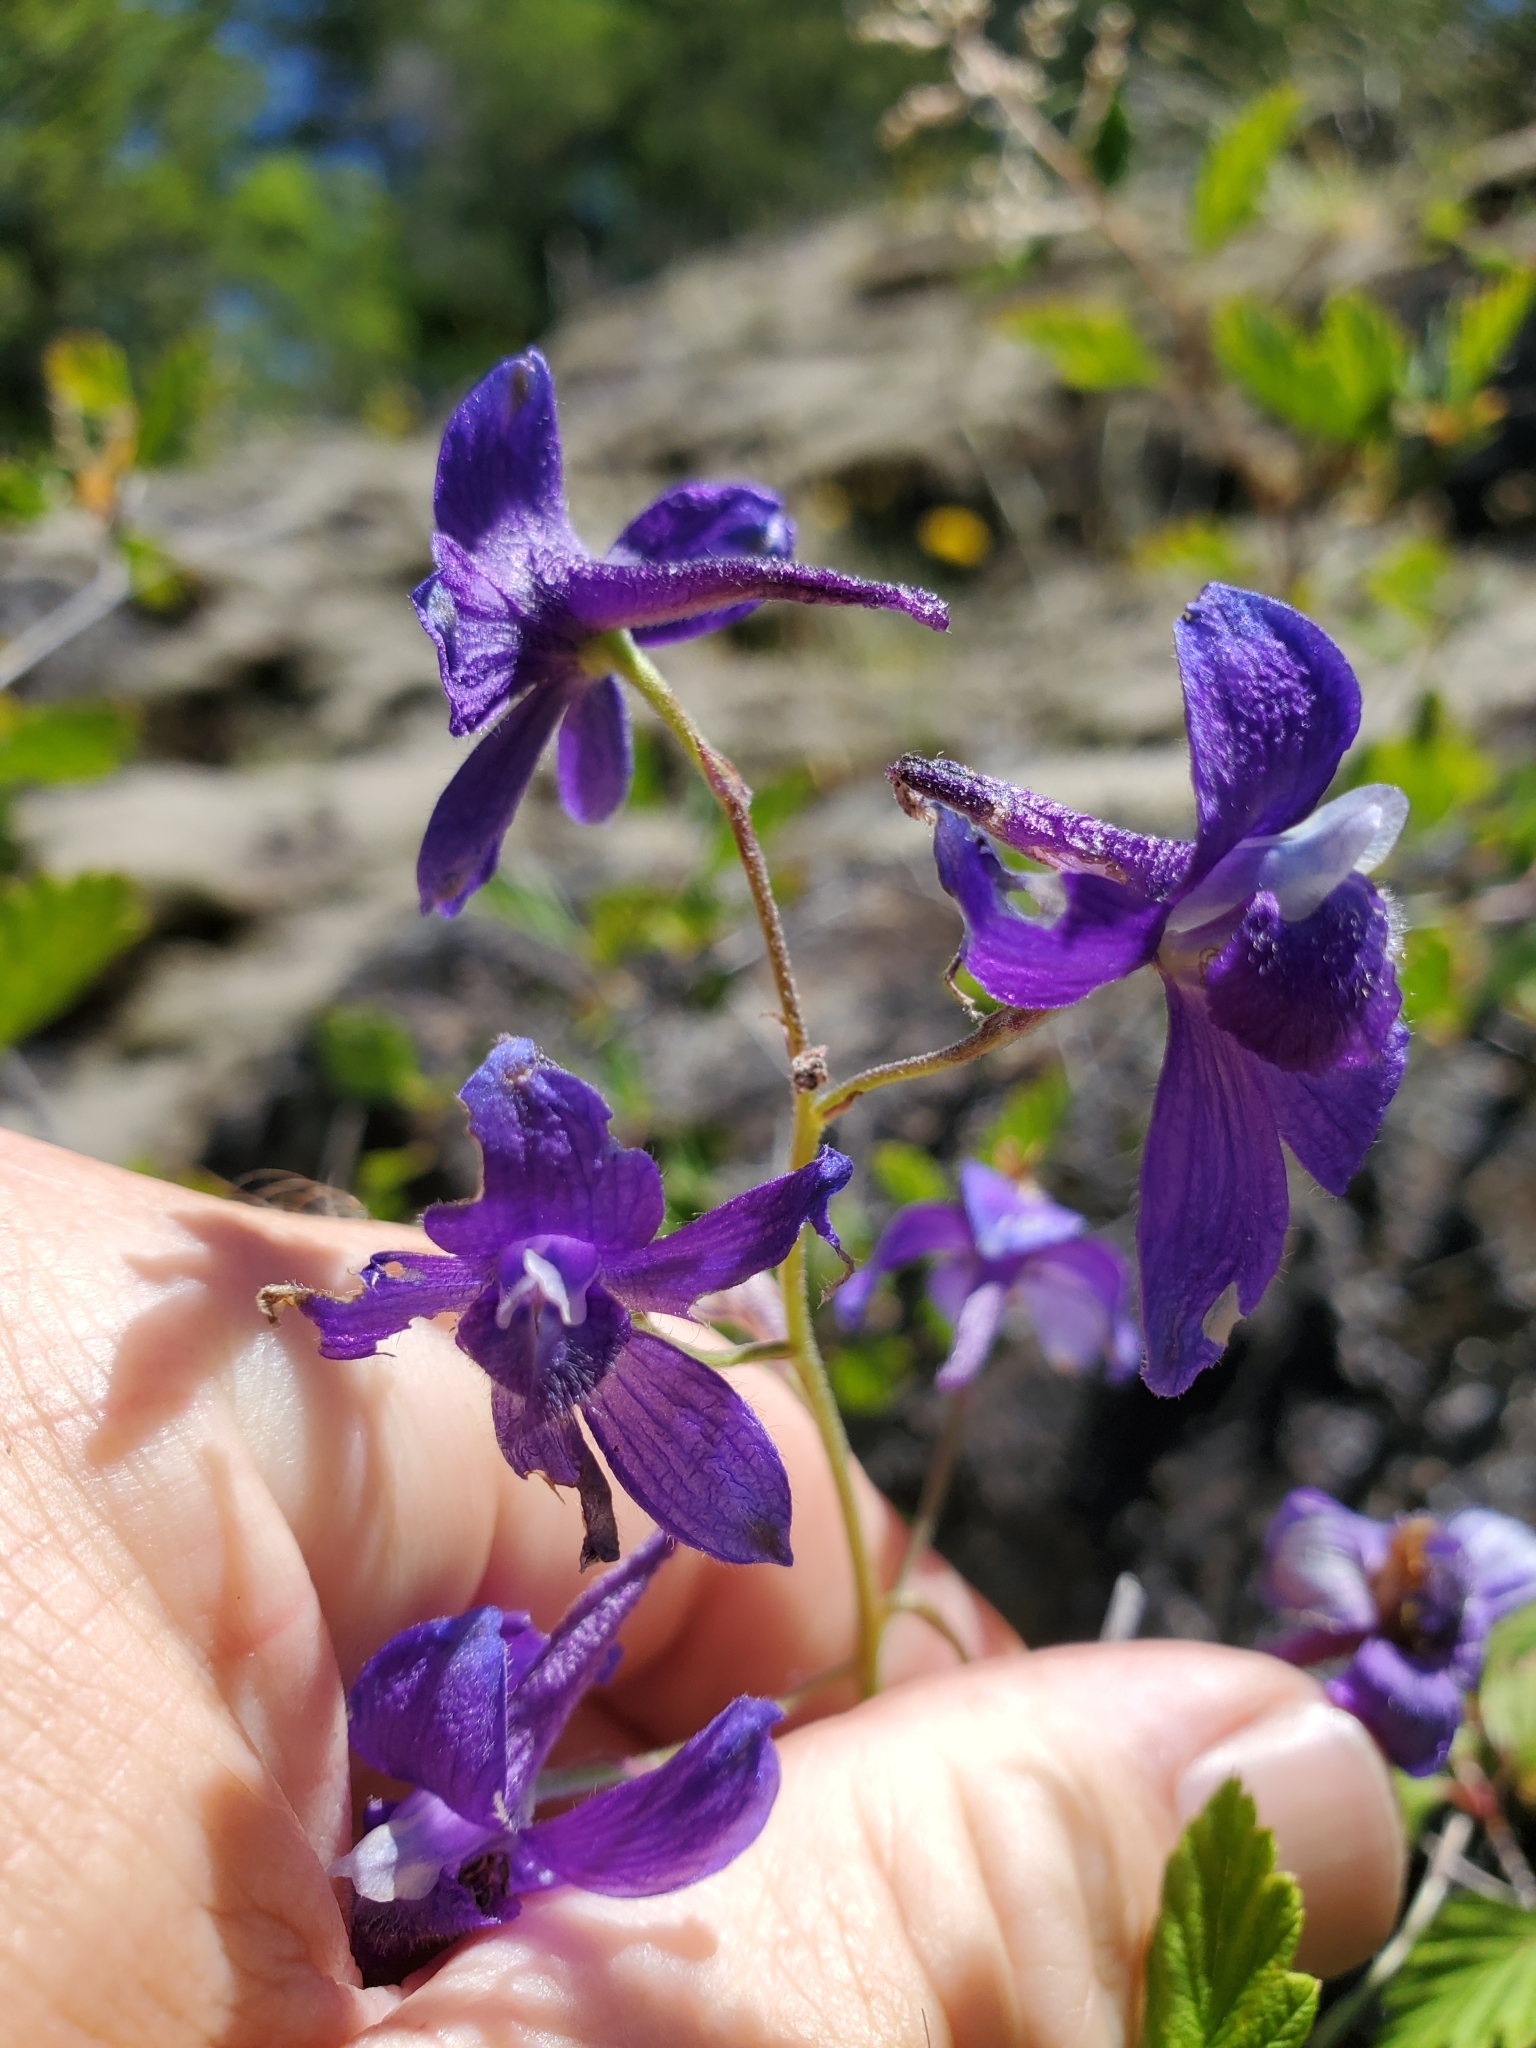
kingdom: Plantae
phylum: Tracheophyta
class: Magnoliopsida
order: Ranunculales
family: Ranunculaceae
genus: Delphinium
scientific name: Delphinium menziesii
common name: Menzies's larkspur
